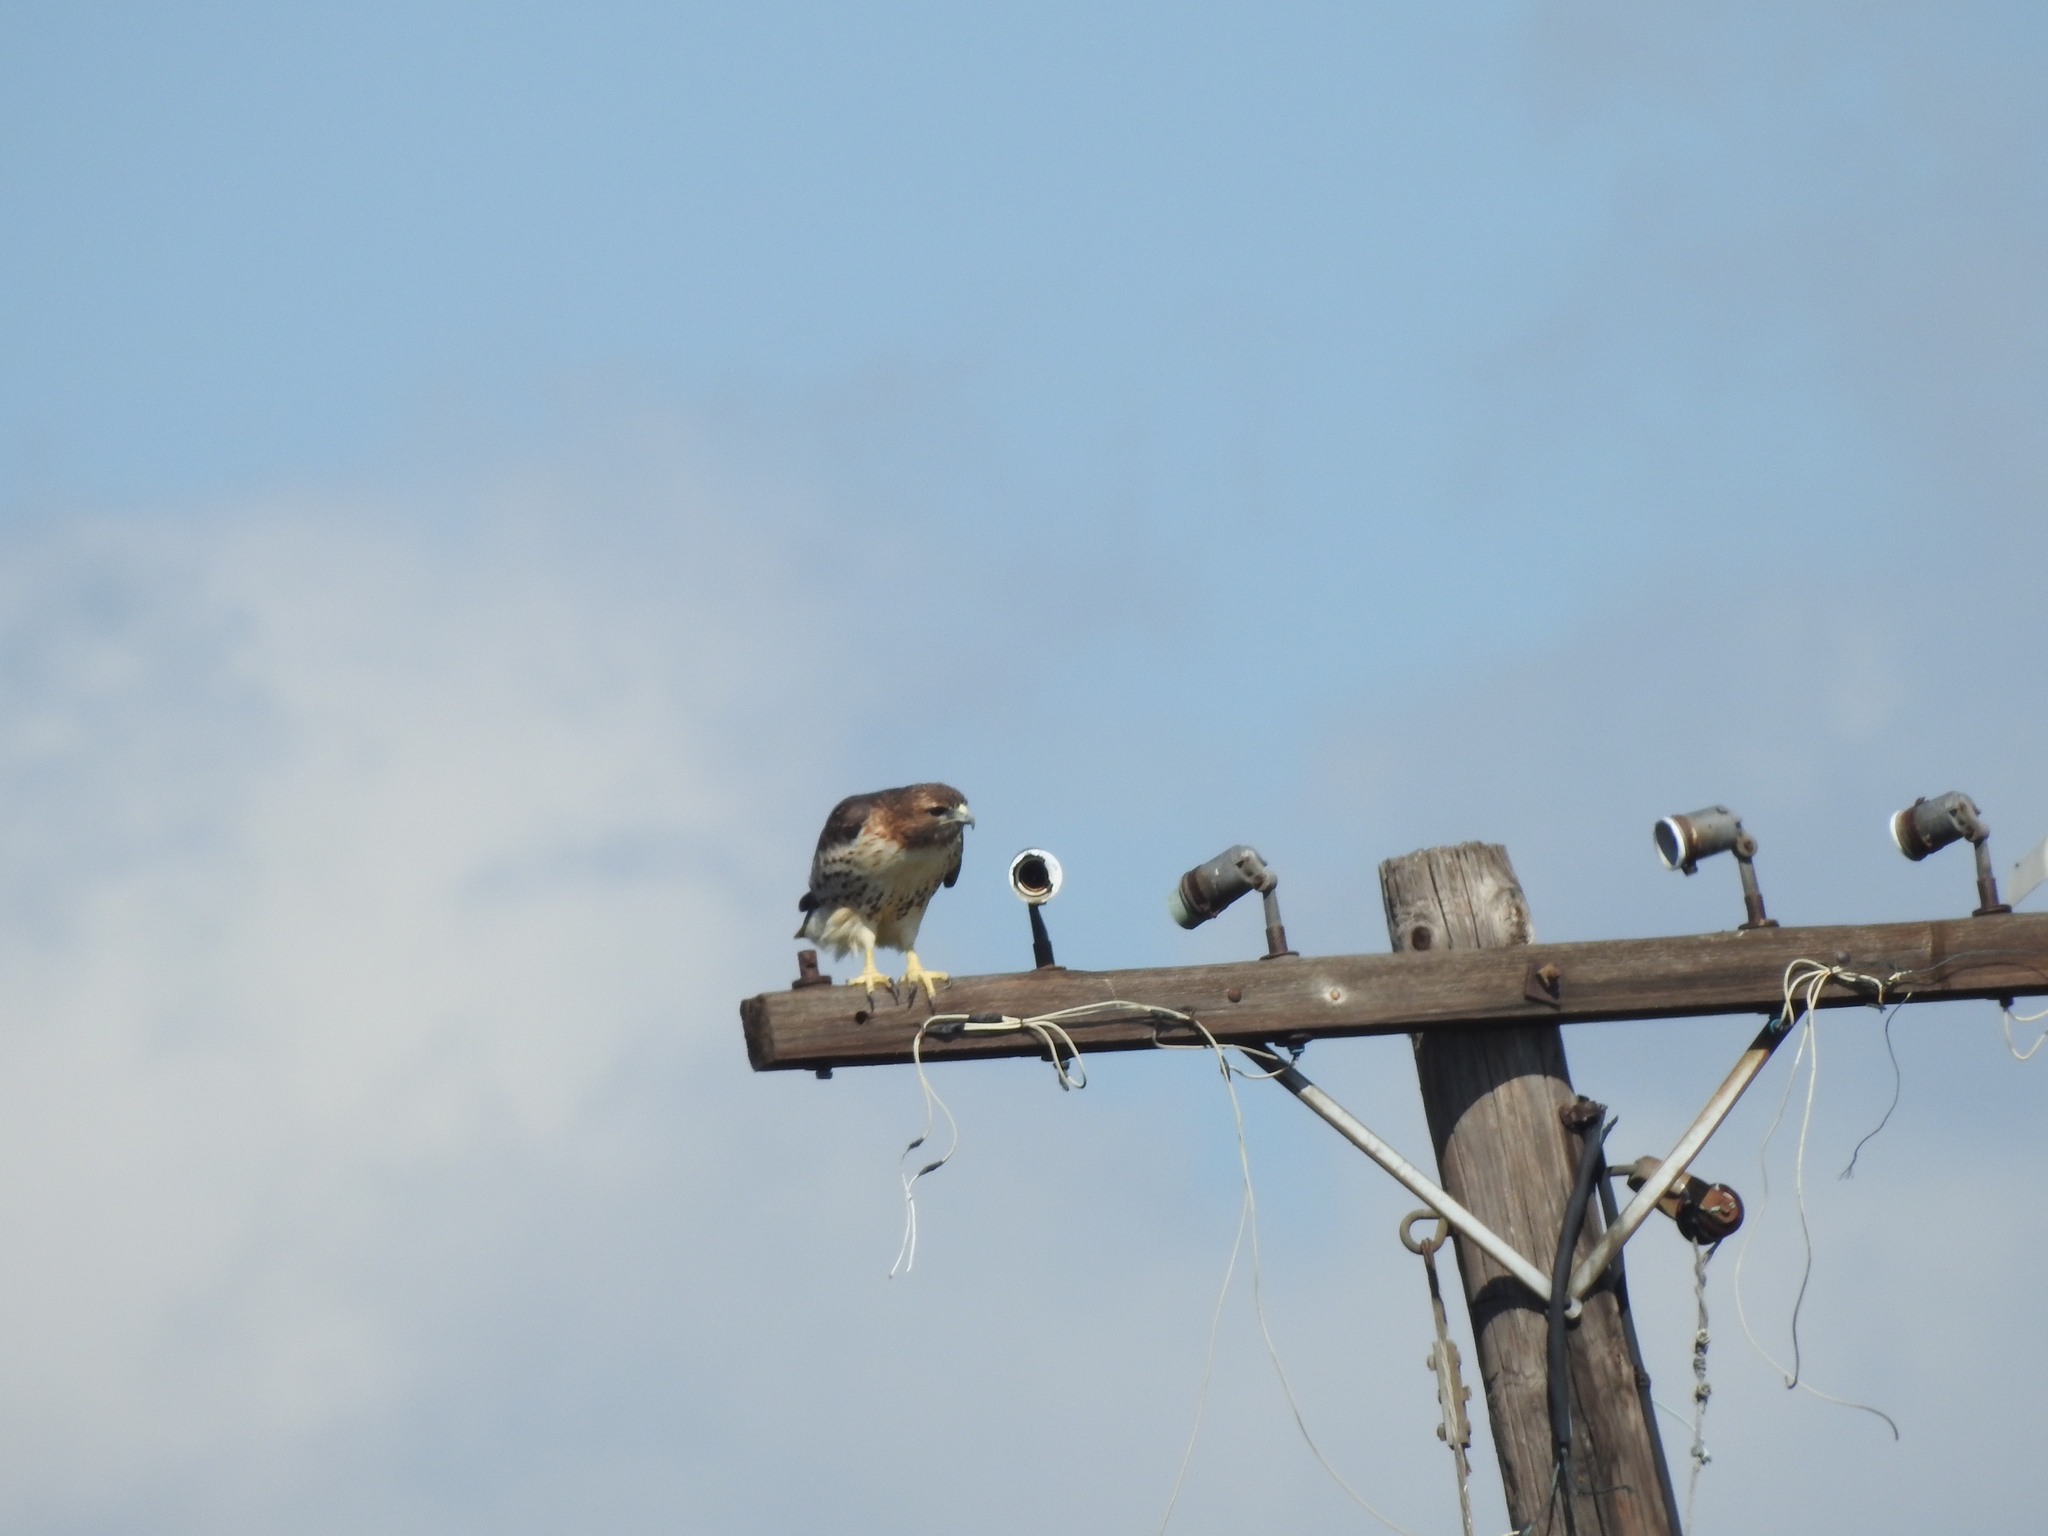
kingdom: Animalia
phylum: Chordata
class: Aves
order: Accipitriformes
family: Accipitridae
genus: Buteo
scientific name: Buteo jamaicensis
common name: Red-tailed hawk
